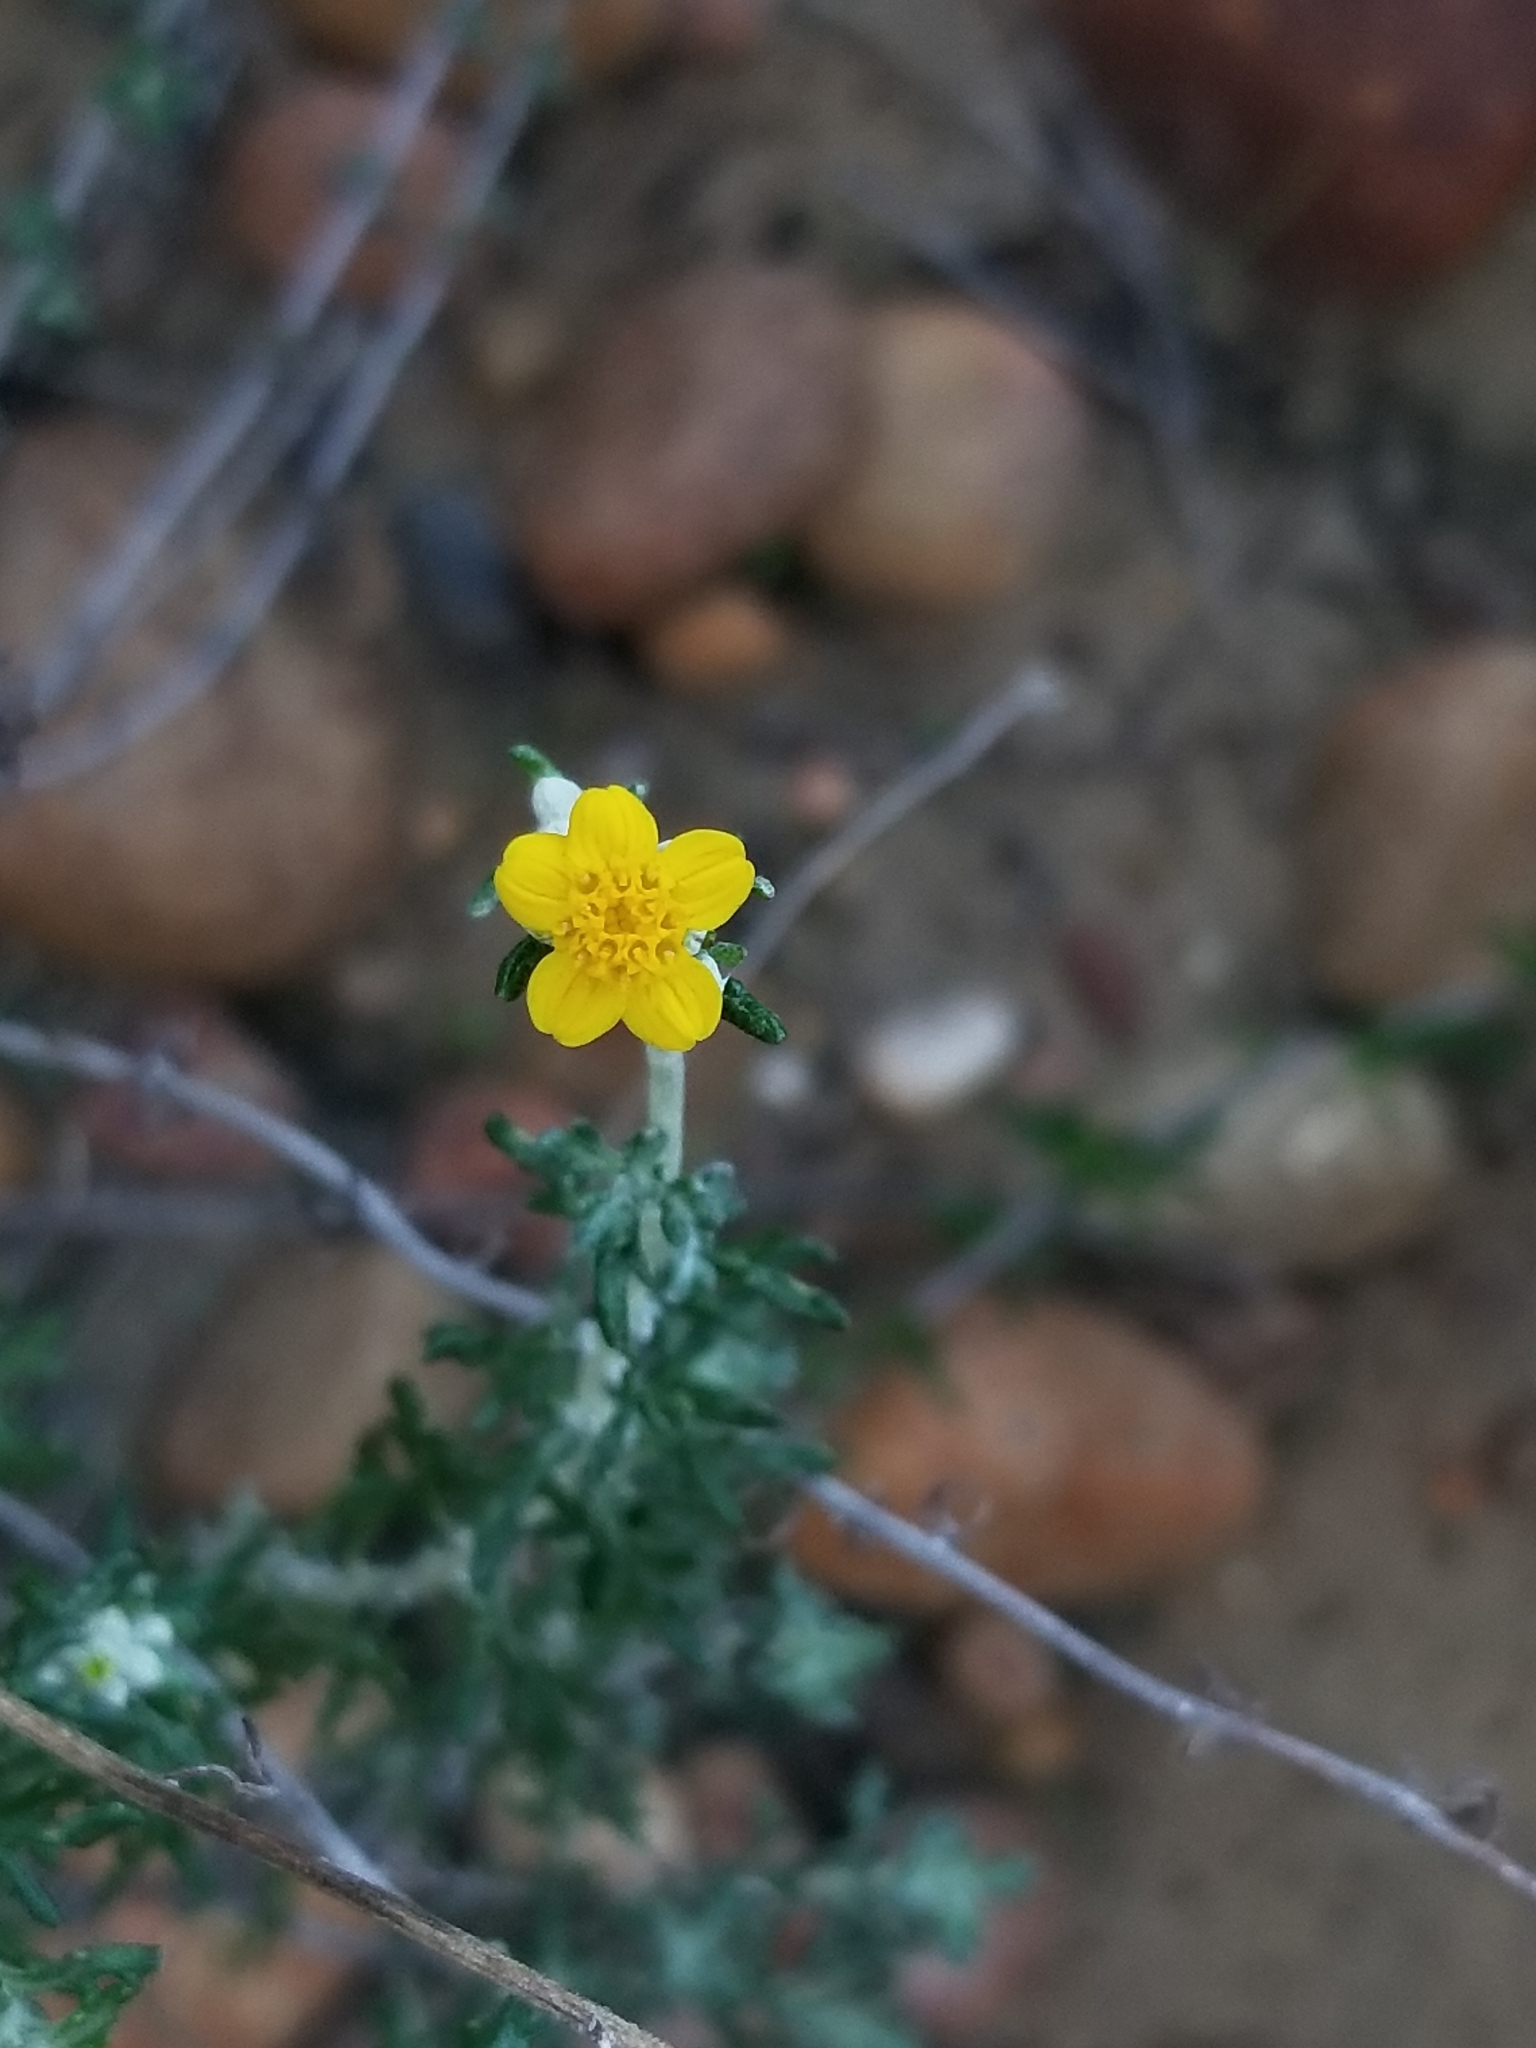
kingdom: Plantae
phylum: Tracheophyta
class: Magnoliopsida
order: Asterales
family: Asteraceae
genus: Eriophyllum
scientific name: Eriophyllum confertiflorum
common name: Golden-yarrow
